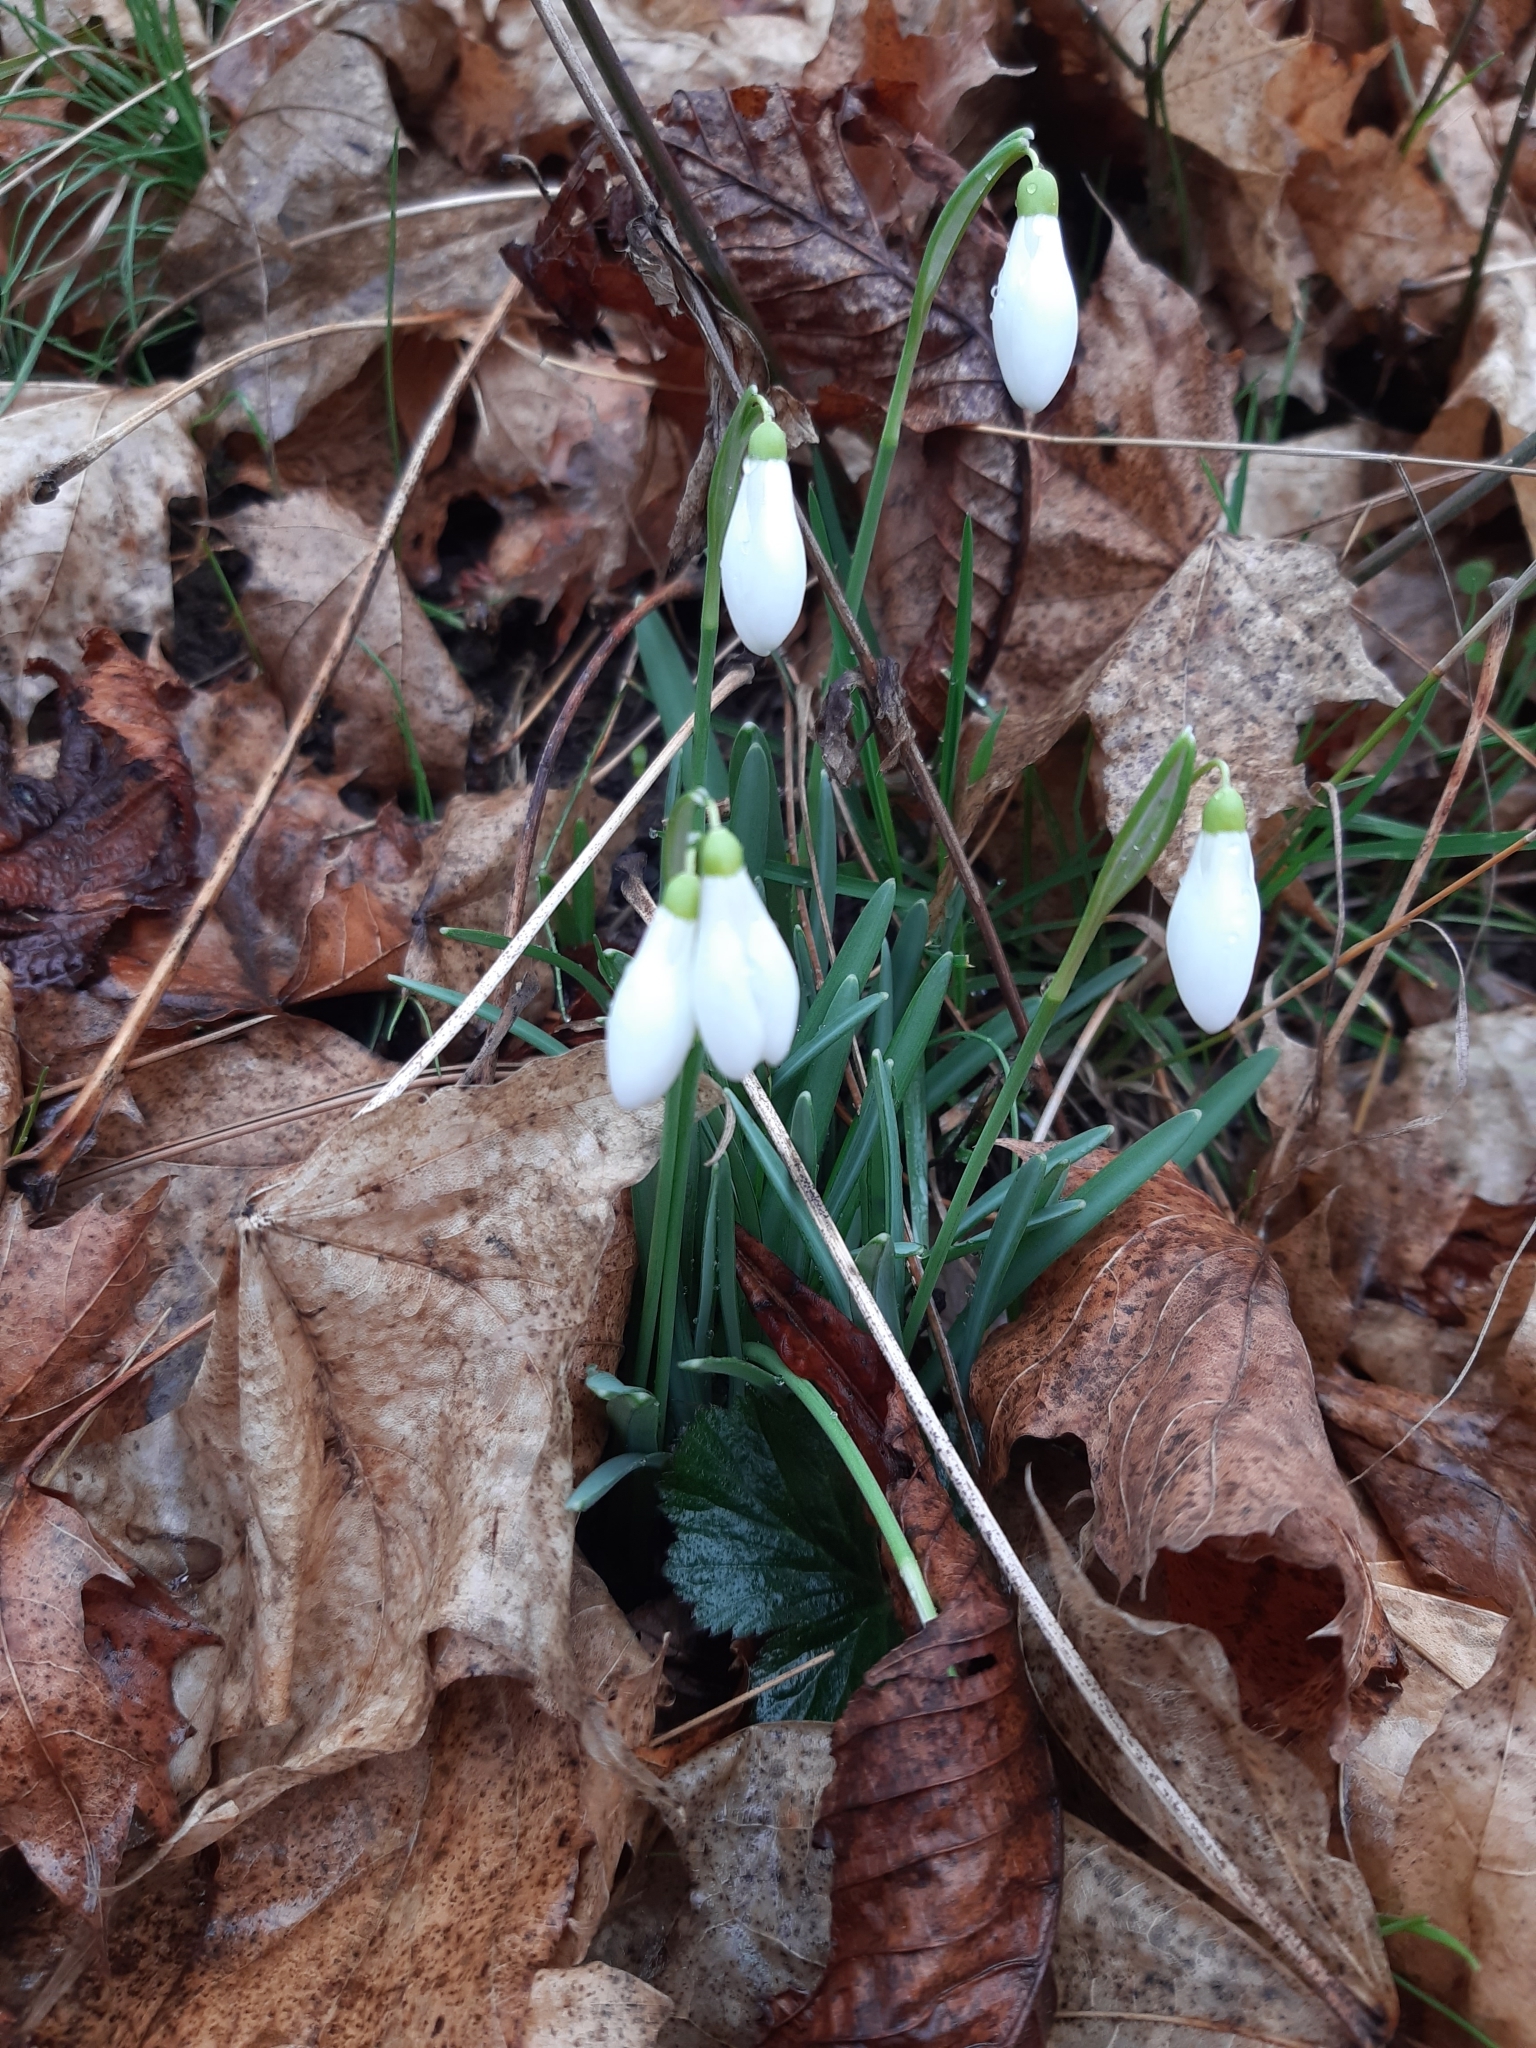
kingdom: Plantae
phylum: Tracheophyta
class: Liliopsida
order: Asparagales
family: Amaryllidaceae
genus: Galanthus
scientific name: Galanthus nivalis
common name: Snowdrop
